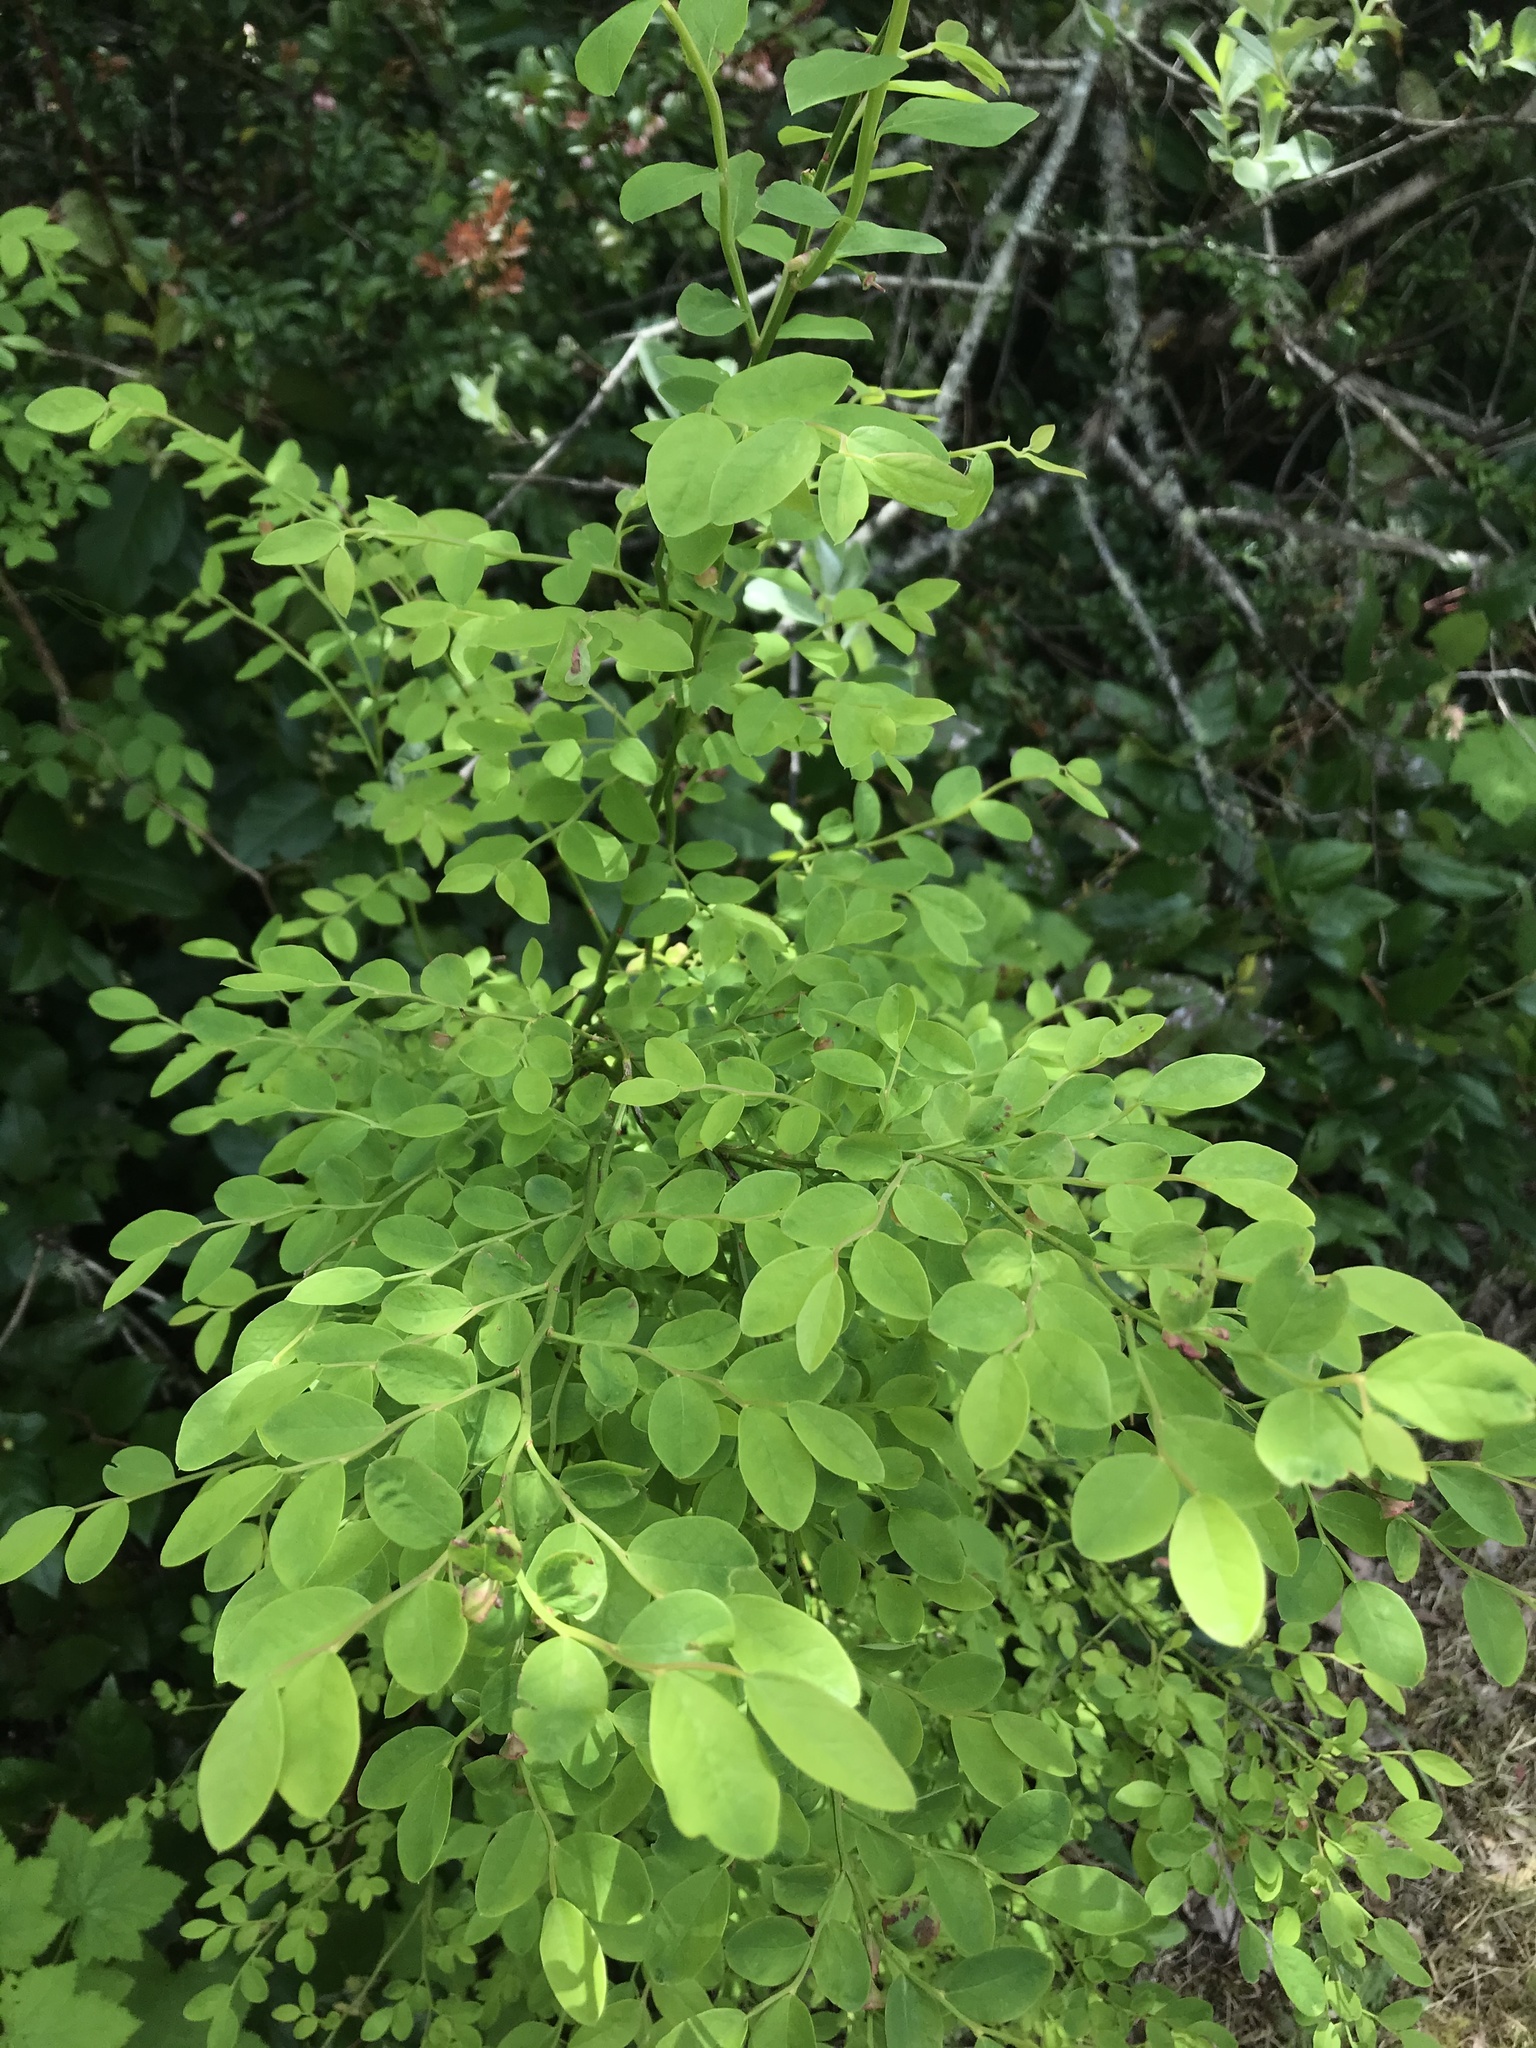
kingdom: Plantae
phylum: Tracheophyta
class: Magnoliopsida
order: Ericales
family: Ericaceae
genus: Vaccinium
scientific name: Vaccinium parvifolium
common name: Red-huckleberry
